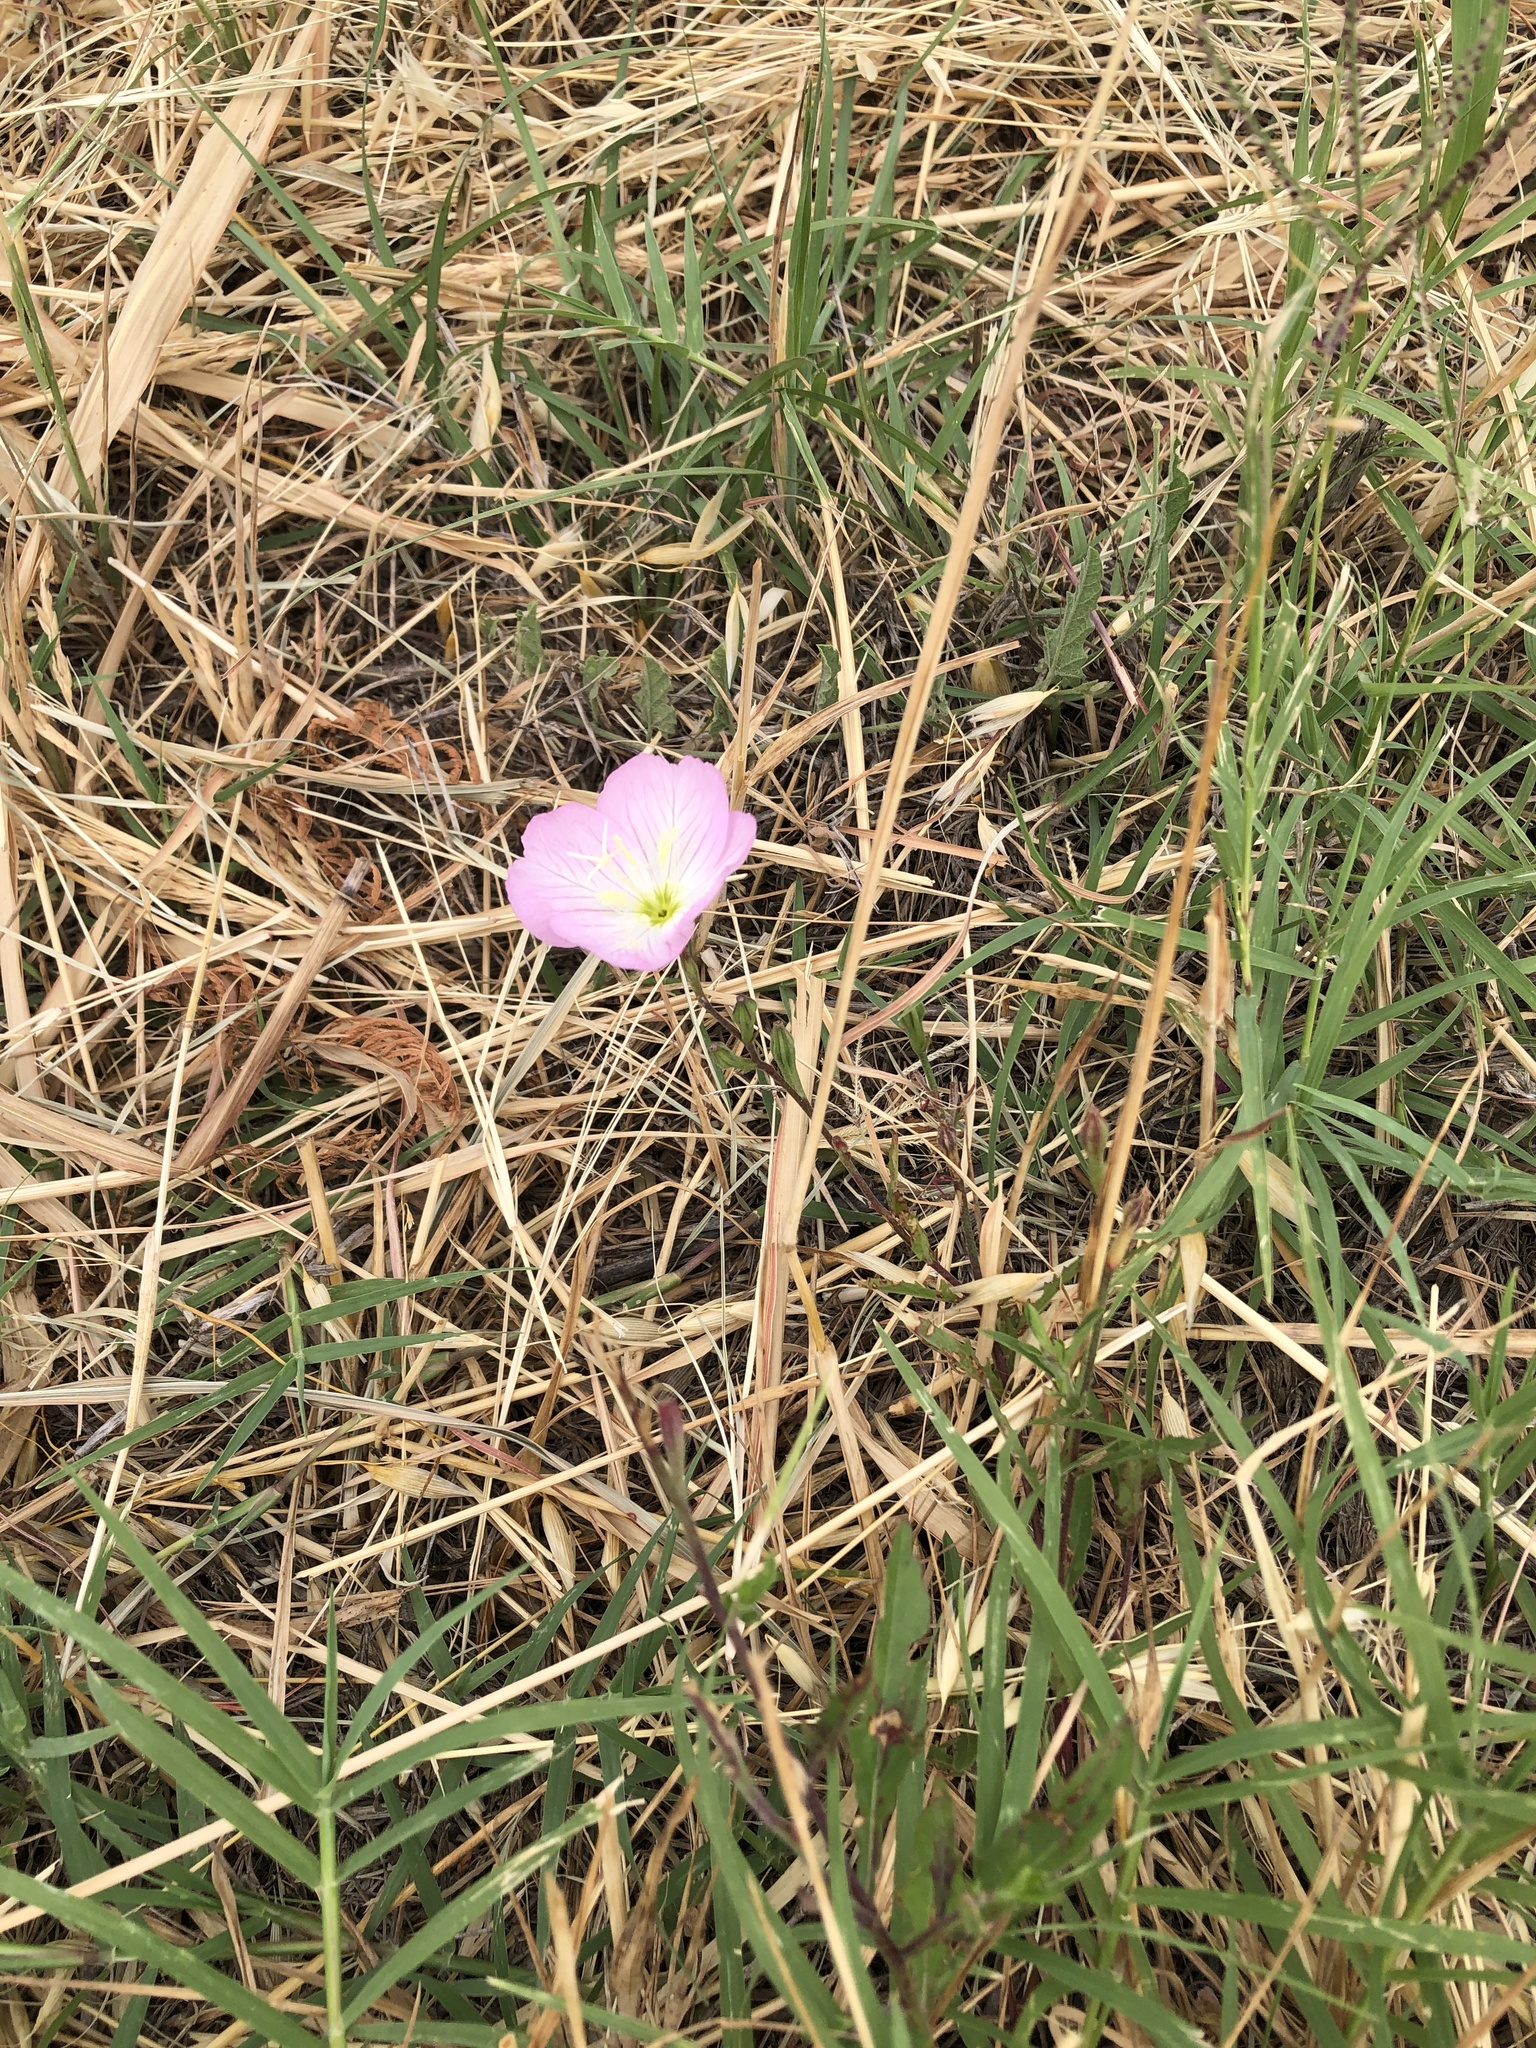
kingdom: Plantae
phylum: Tracheophyta
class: Magnoliopsida
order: Myrtales
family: Onagraceae
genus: Oenothera
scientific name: Oenothera speciosa
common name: White evening-primrose
